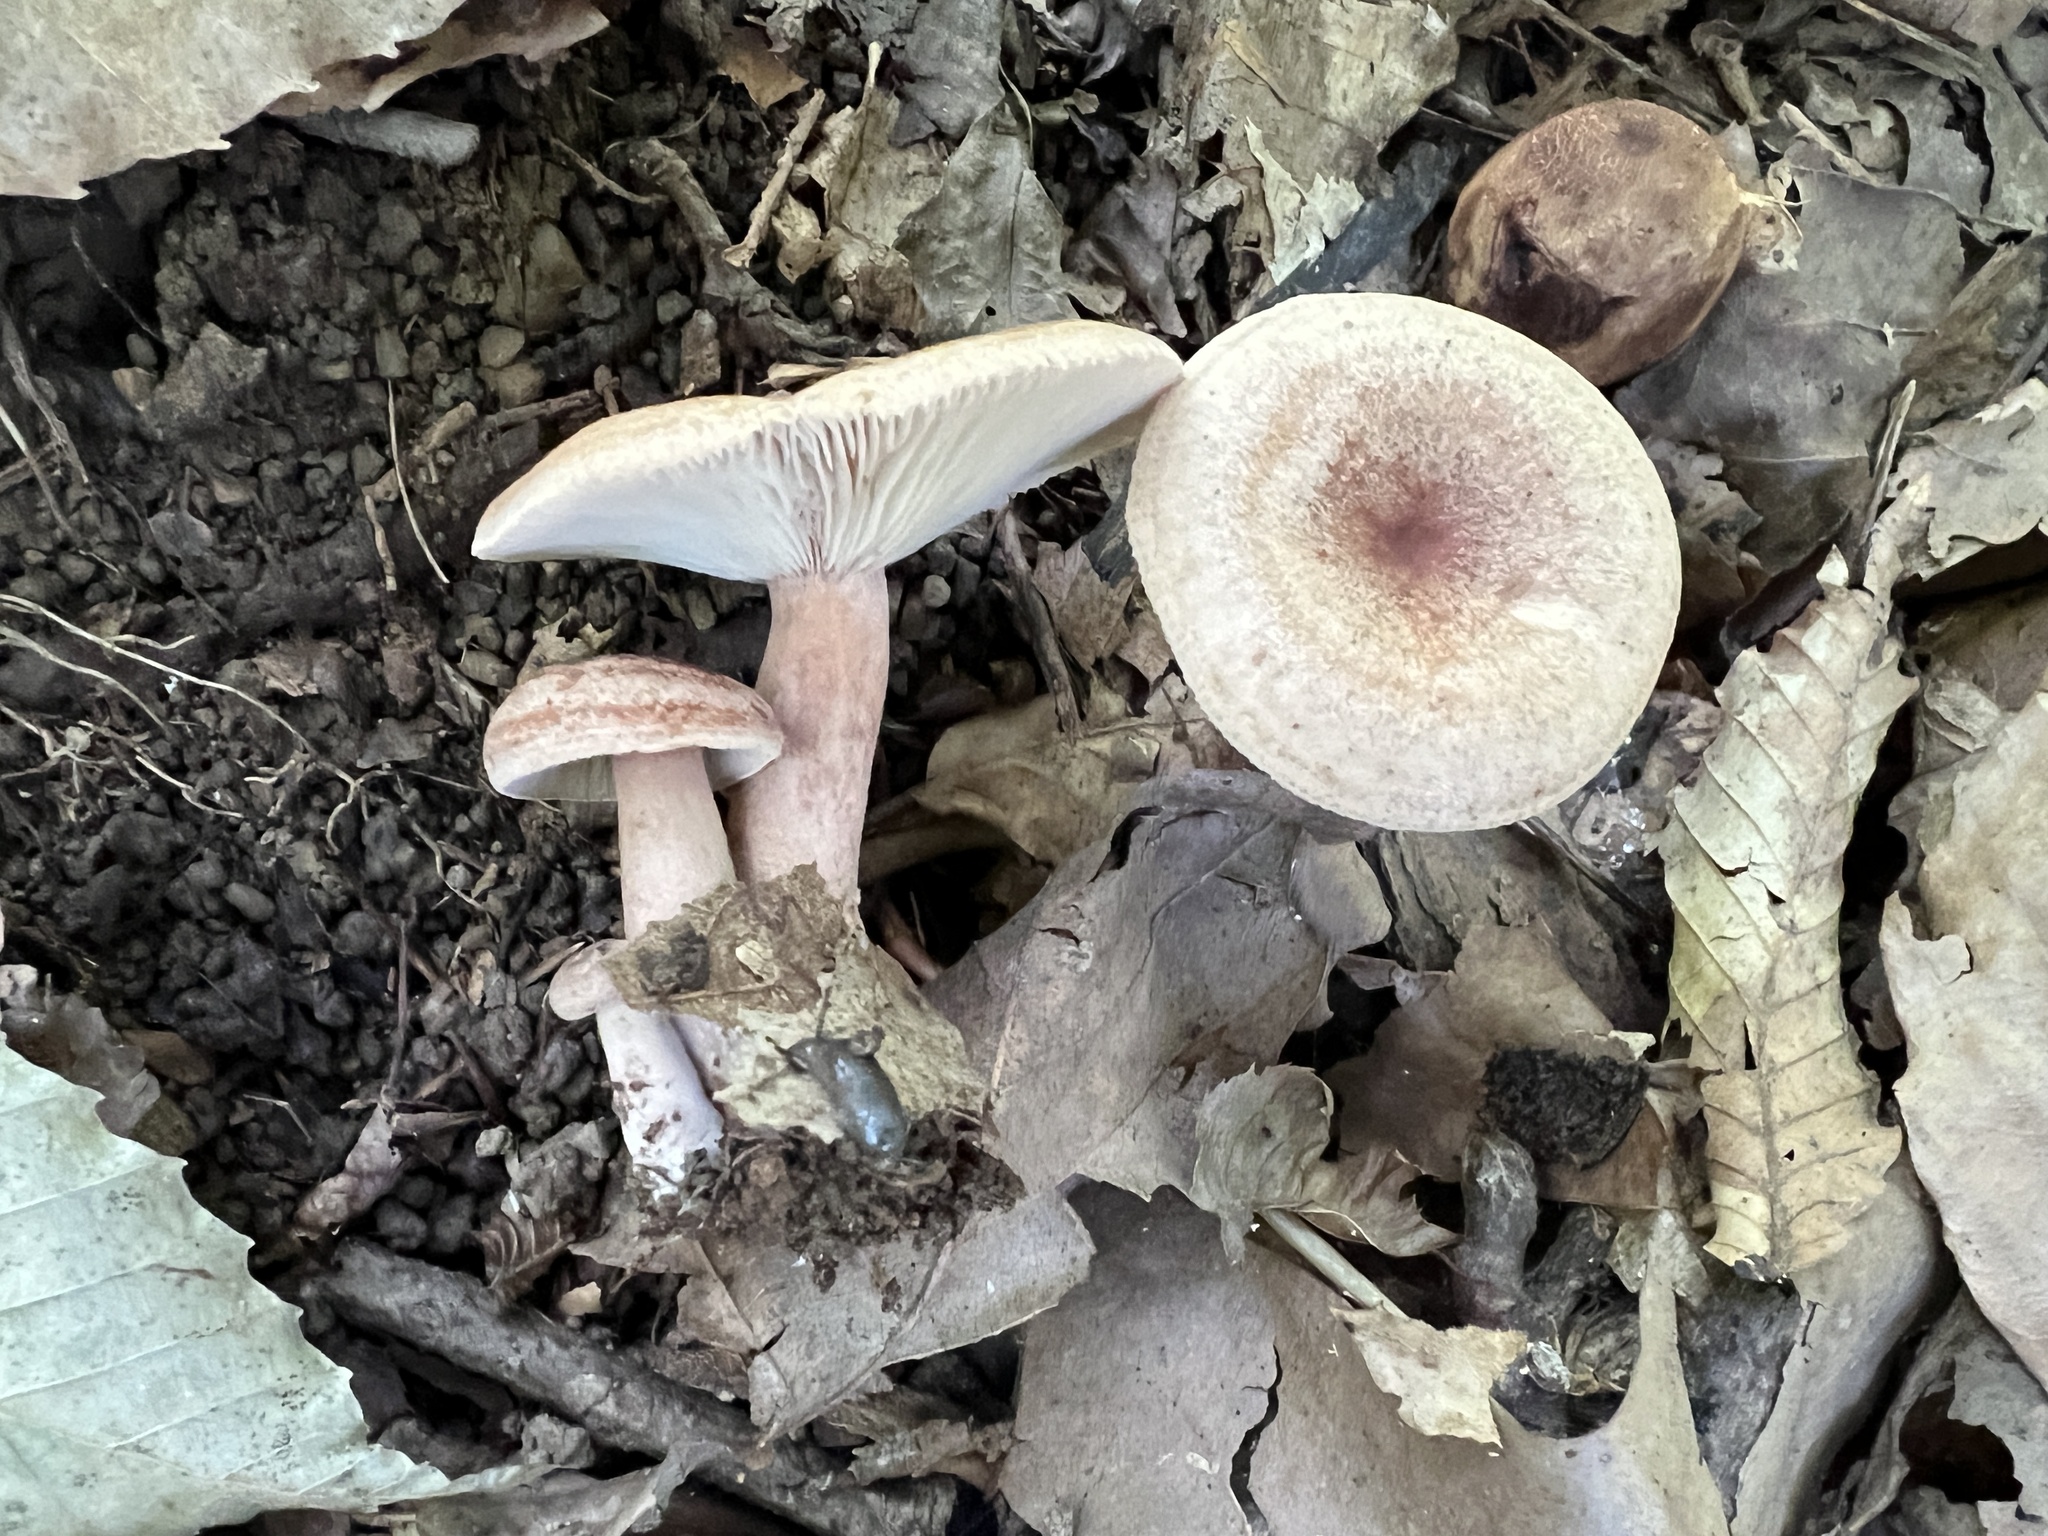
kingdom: Fungi
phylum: Basidiomycota
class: Agaricomycetes
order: Russulales
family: Russulaceae
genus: Lactarius
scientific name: Lactarius mutabilis
